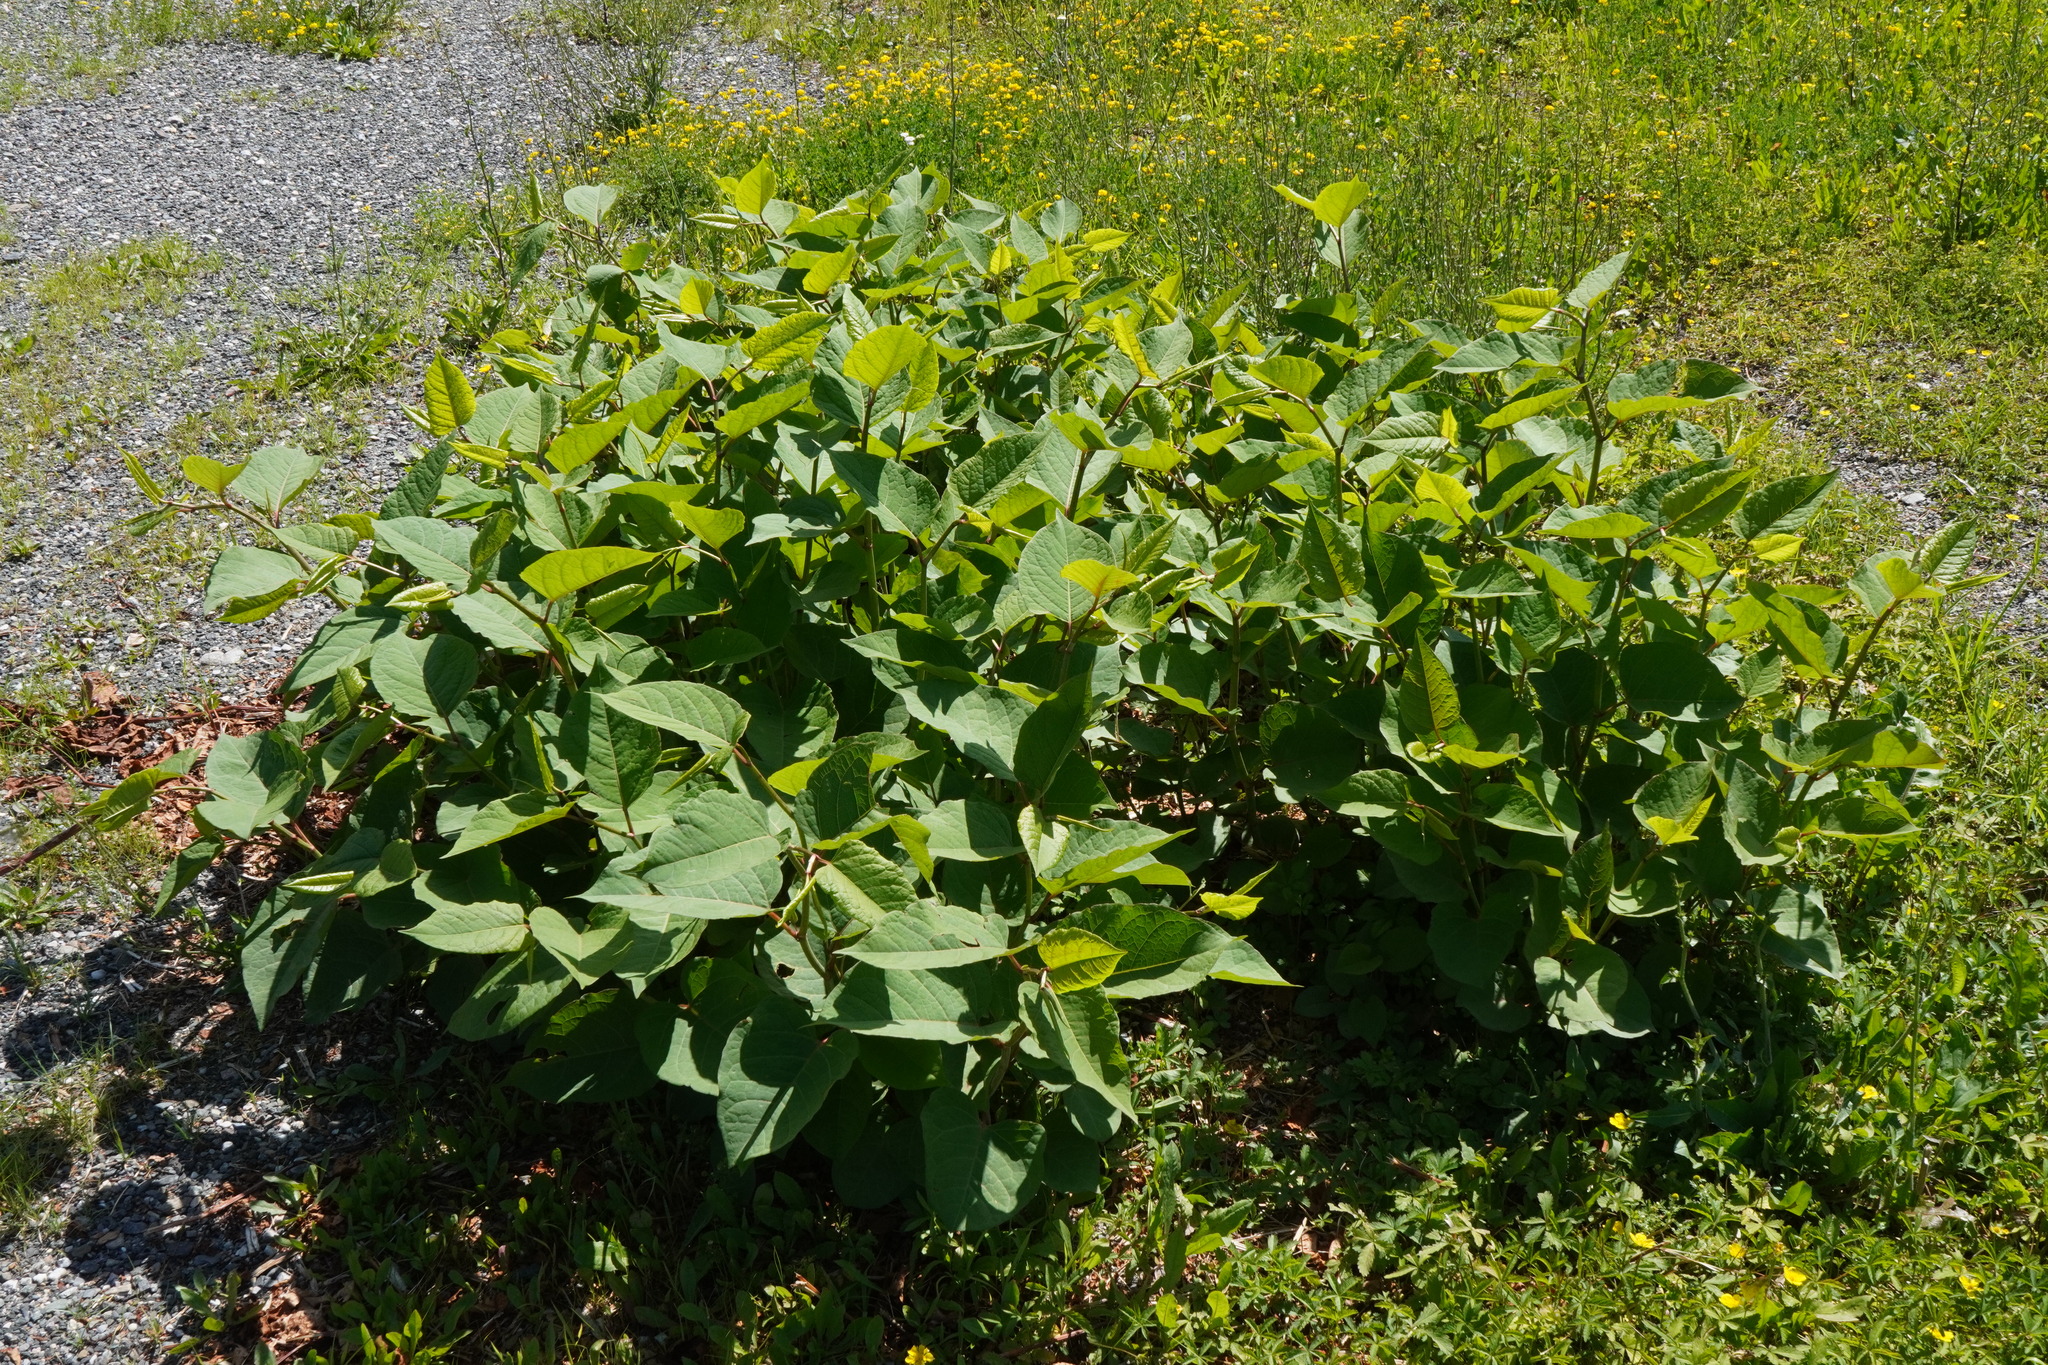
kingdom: Plantae
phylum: Tracheophyta
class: Magnoliopsida
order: Caryophyllales
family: Polygonaceae
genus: Reynoutria
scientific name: Reynoutria bohemica
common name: Bohemian knotweed
